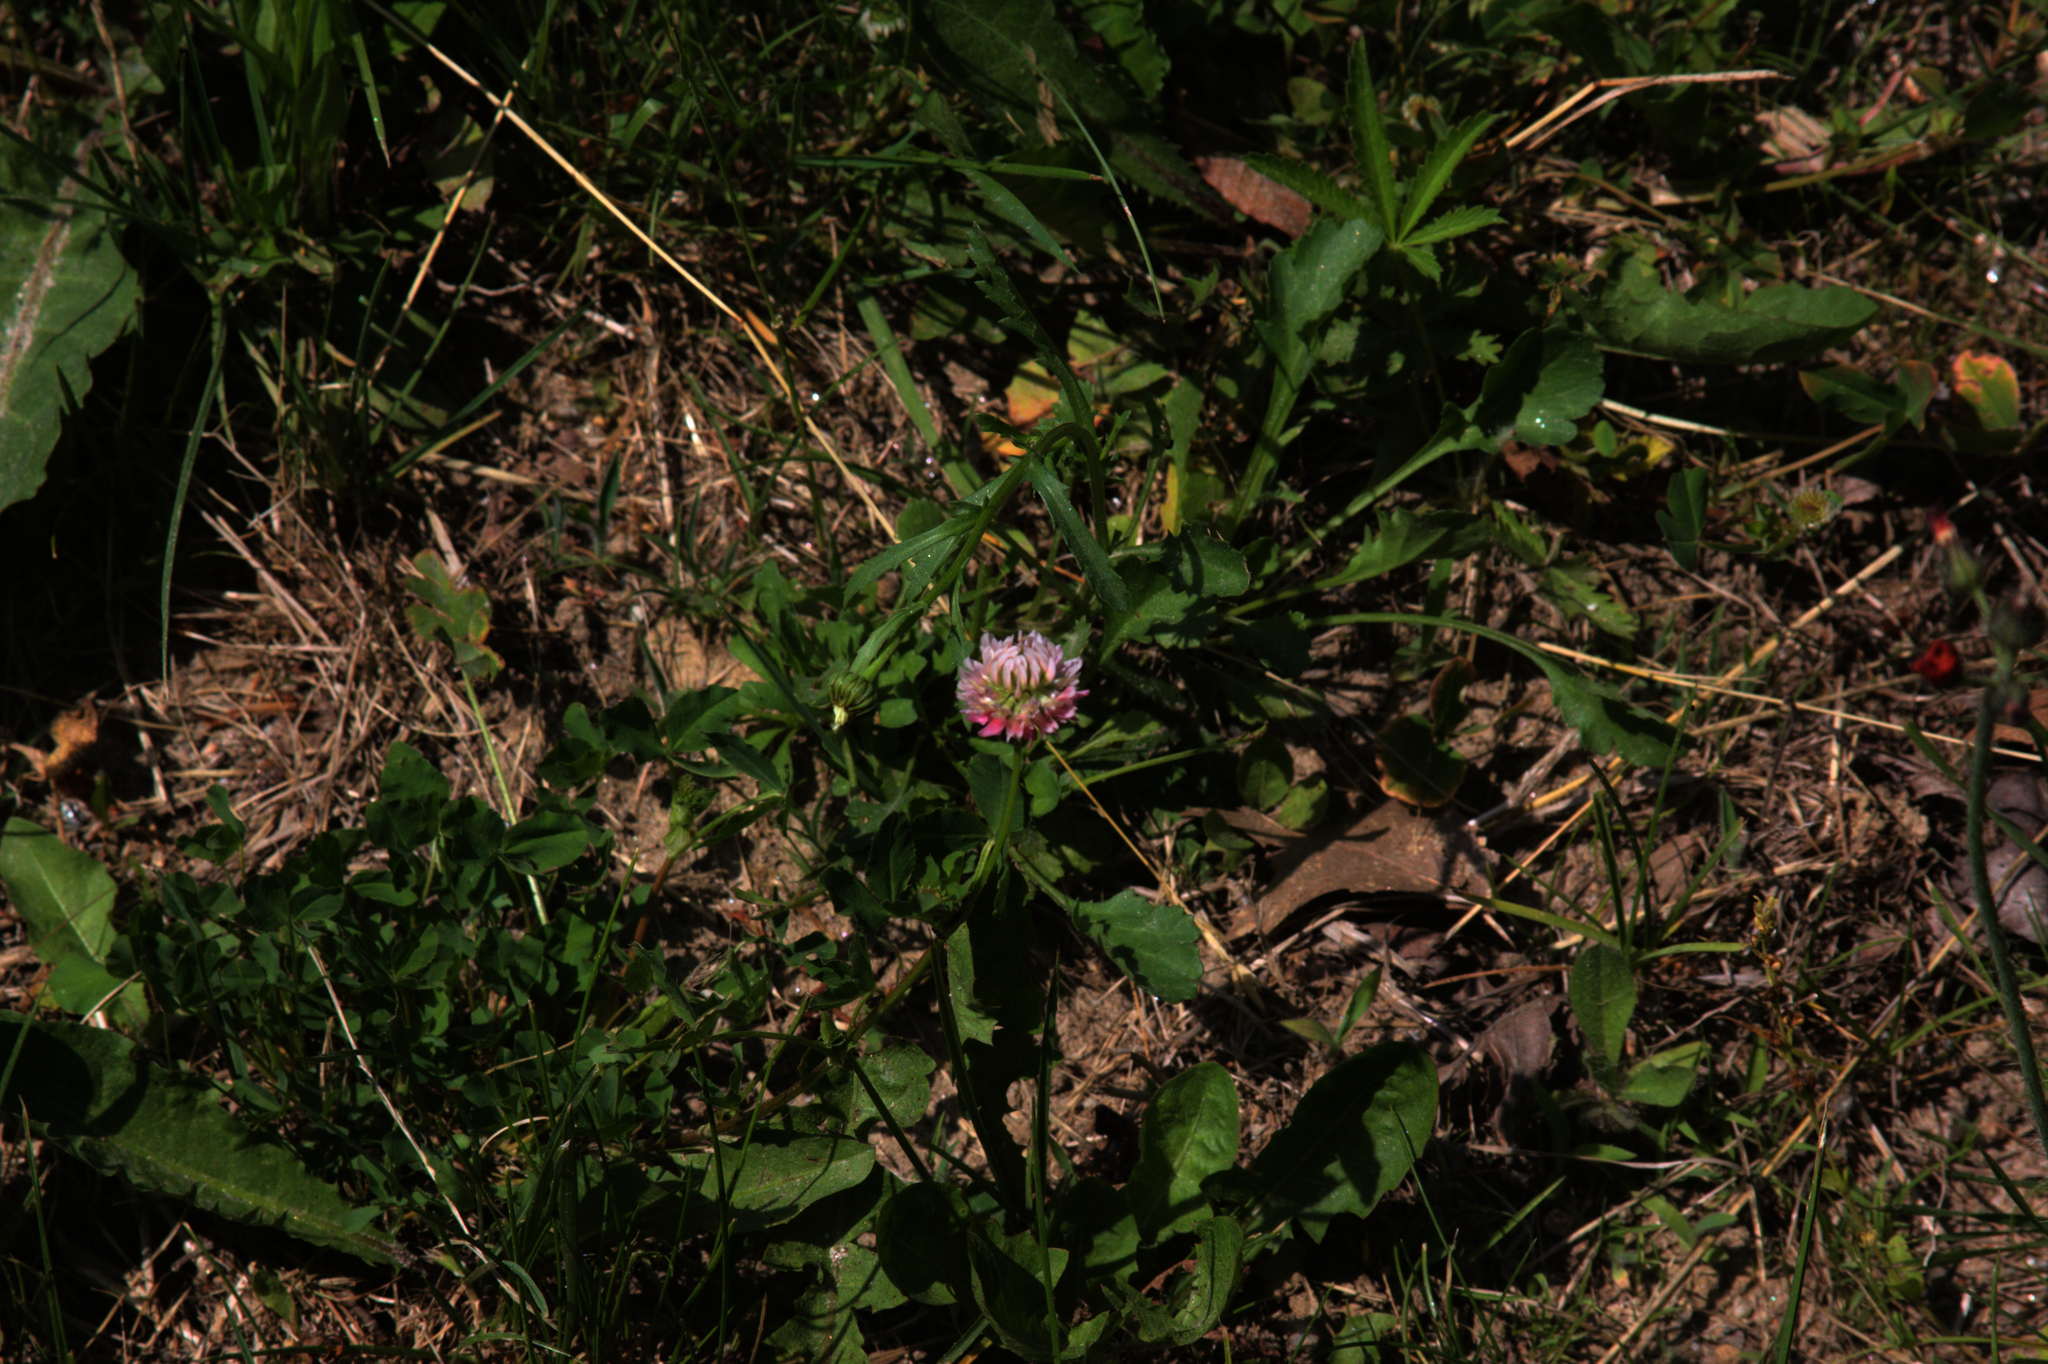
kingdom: Plantae
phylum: Tracheophyta
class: Magnoliopsida
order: Fabales
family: Fabaceae
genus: Trifolium
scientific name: Trifolium hybridum
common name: Alsike clover
